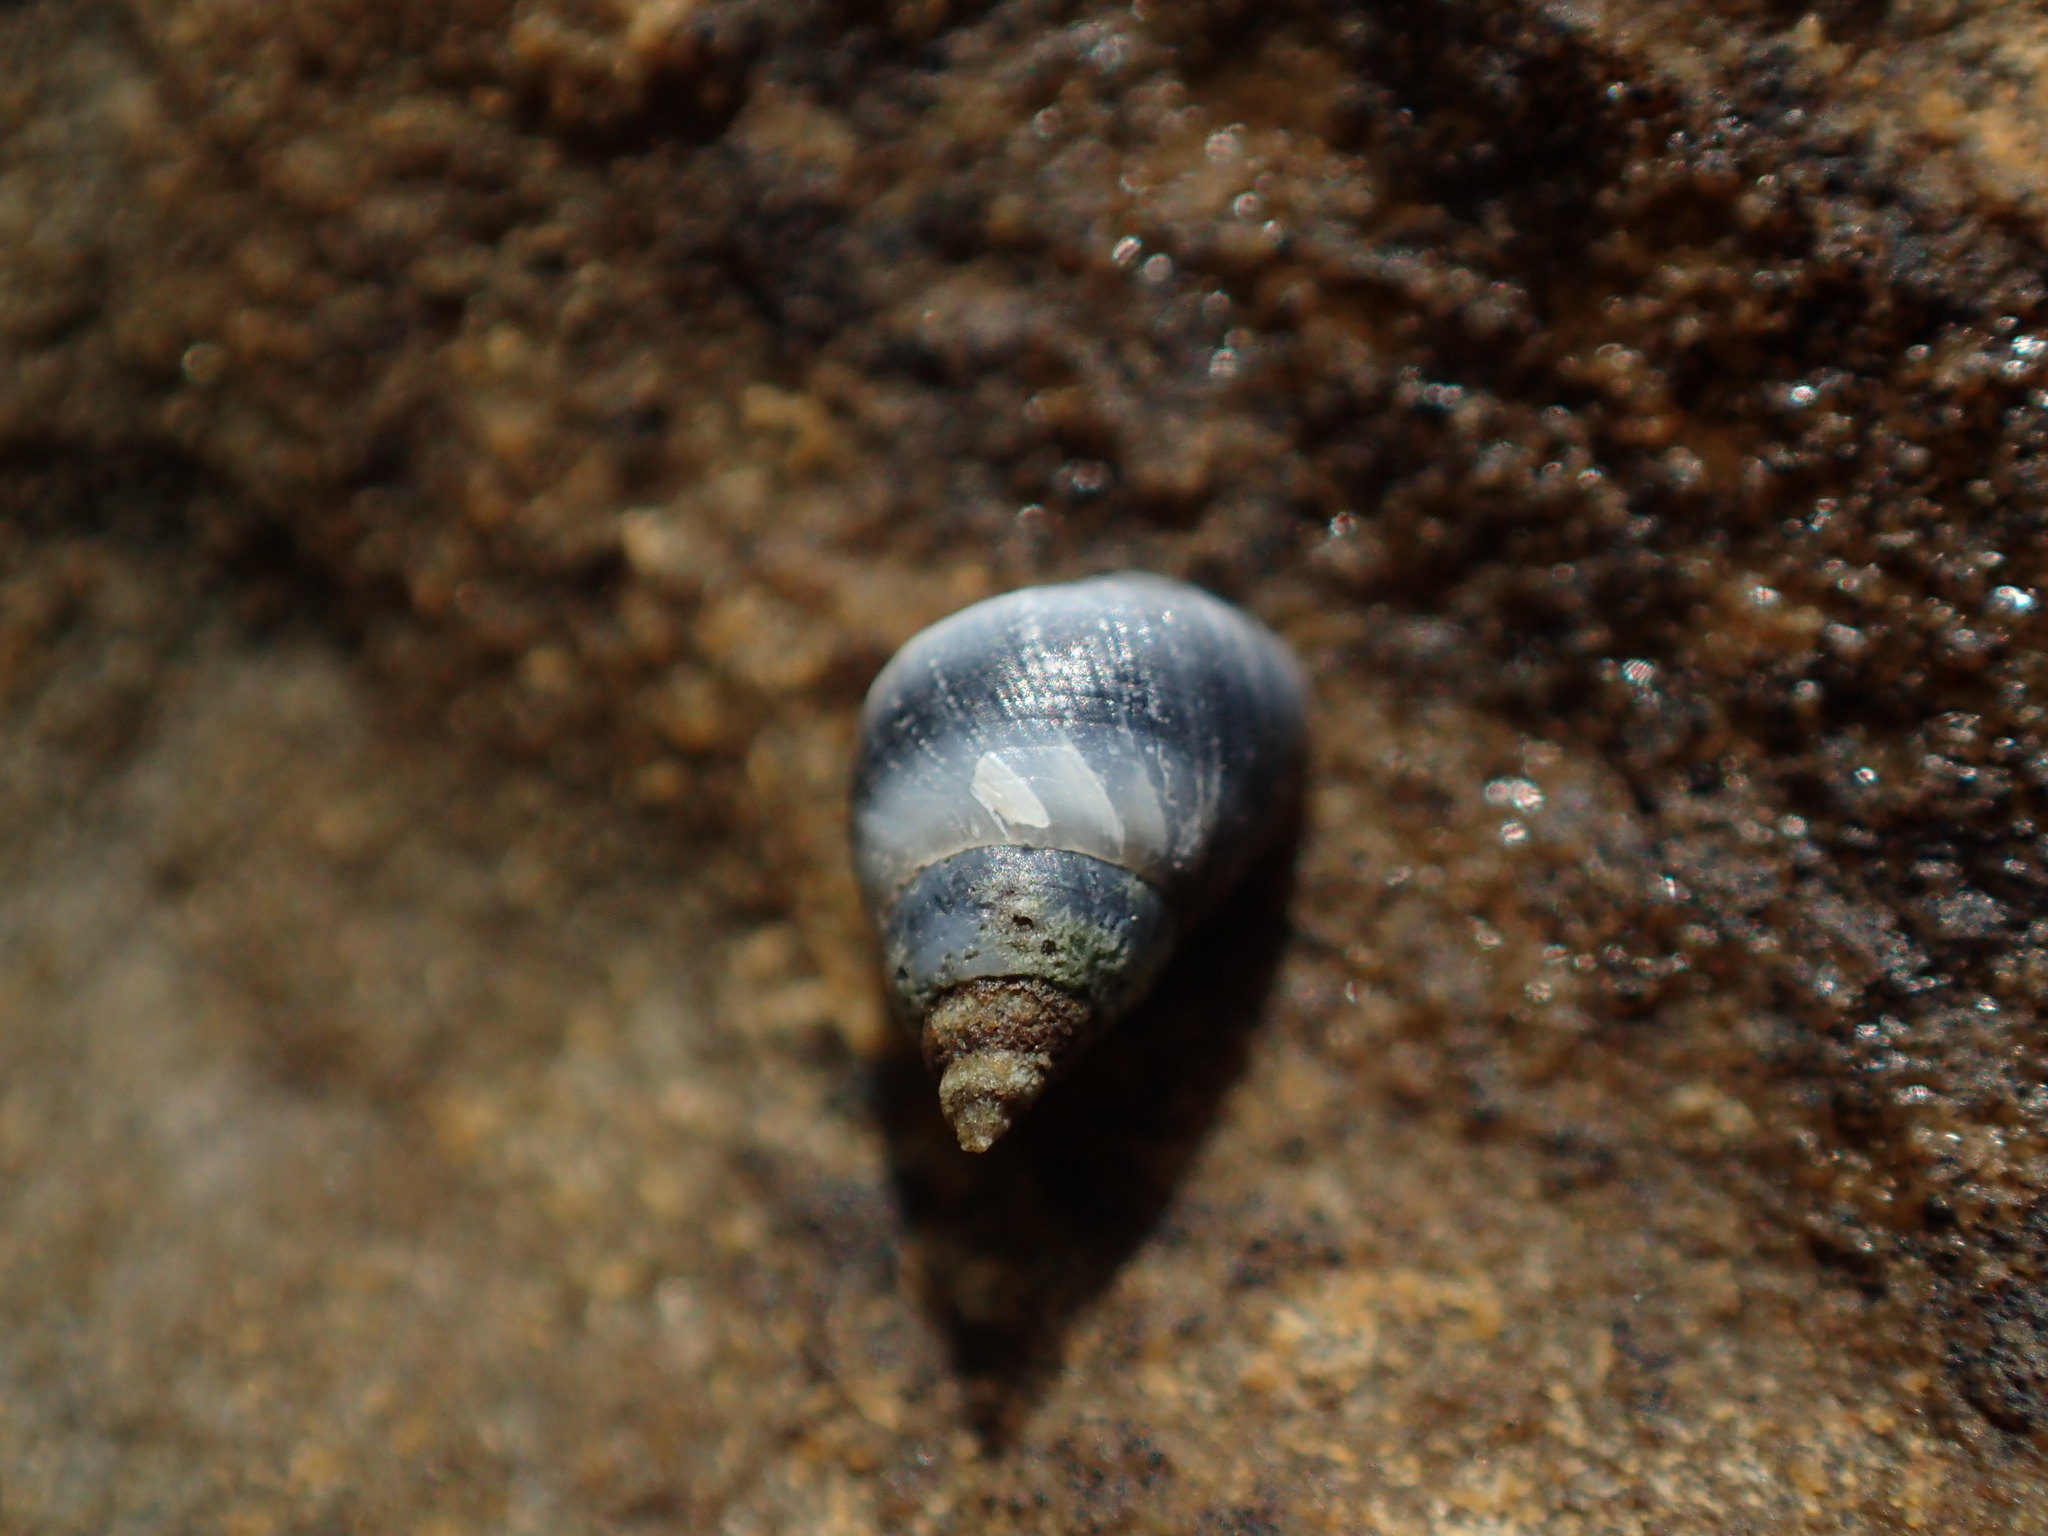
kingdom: Animalia
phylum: Mollusca
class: Gastropoda
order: Littorinimorpha
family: Littorinidae
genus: Austrolittorina
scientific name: Austrolittorina antipodum
